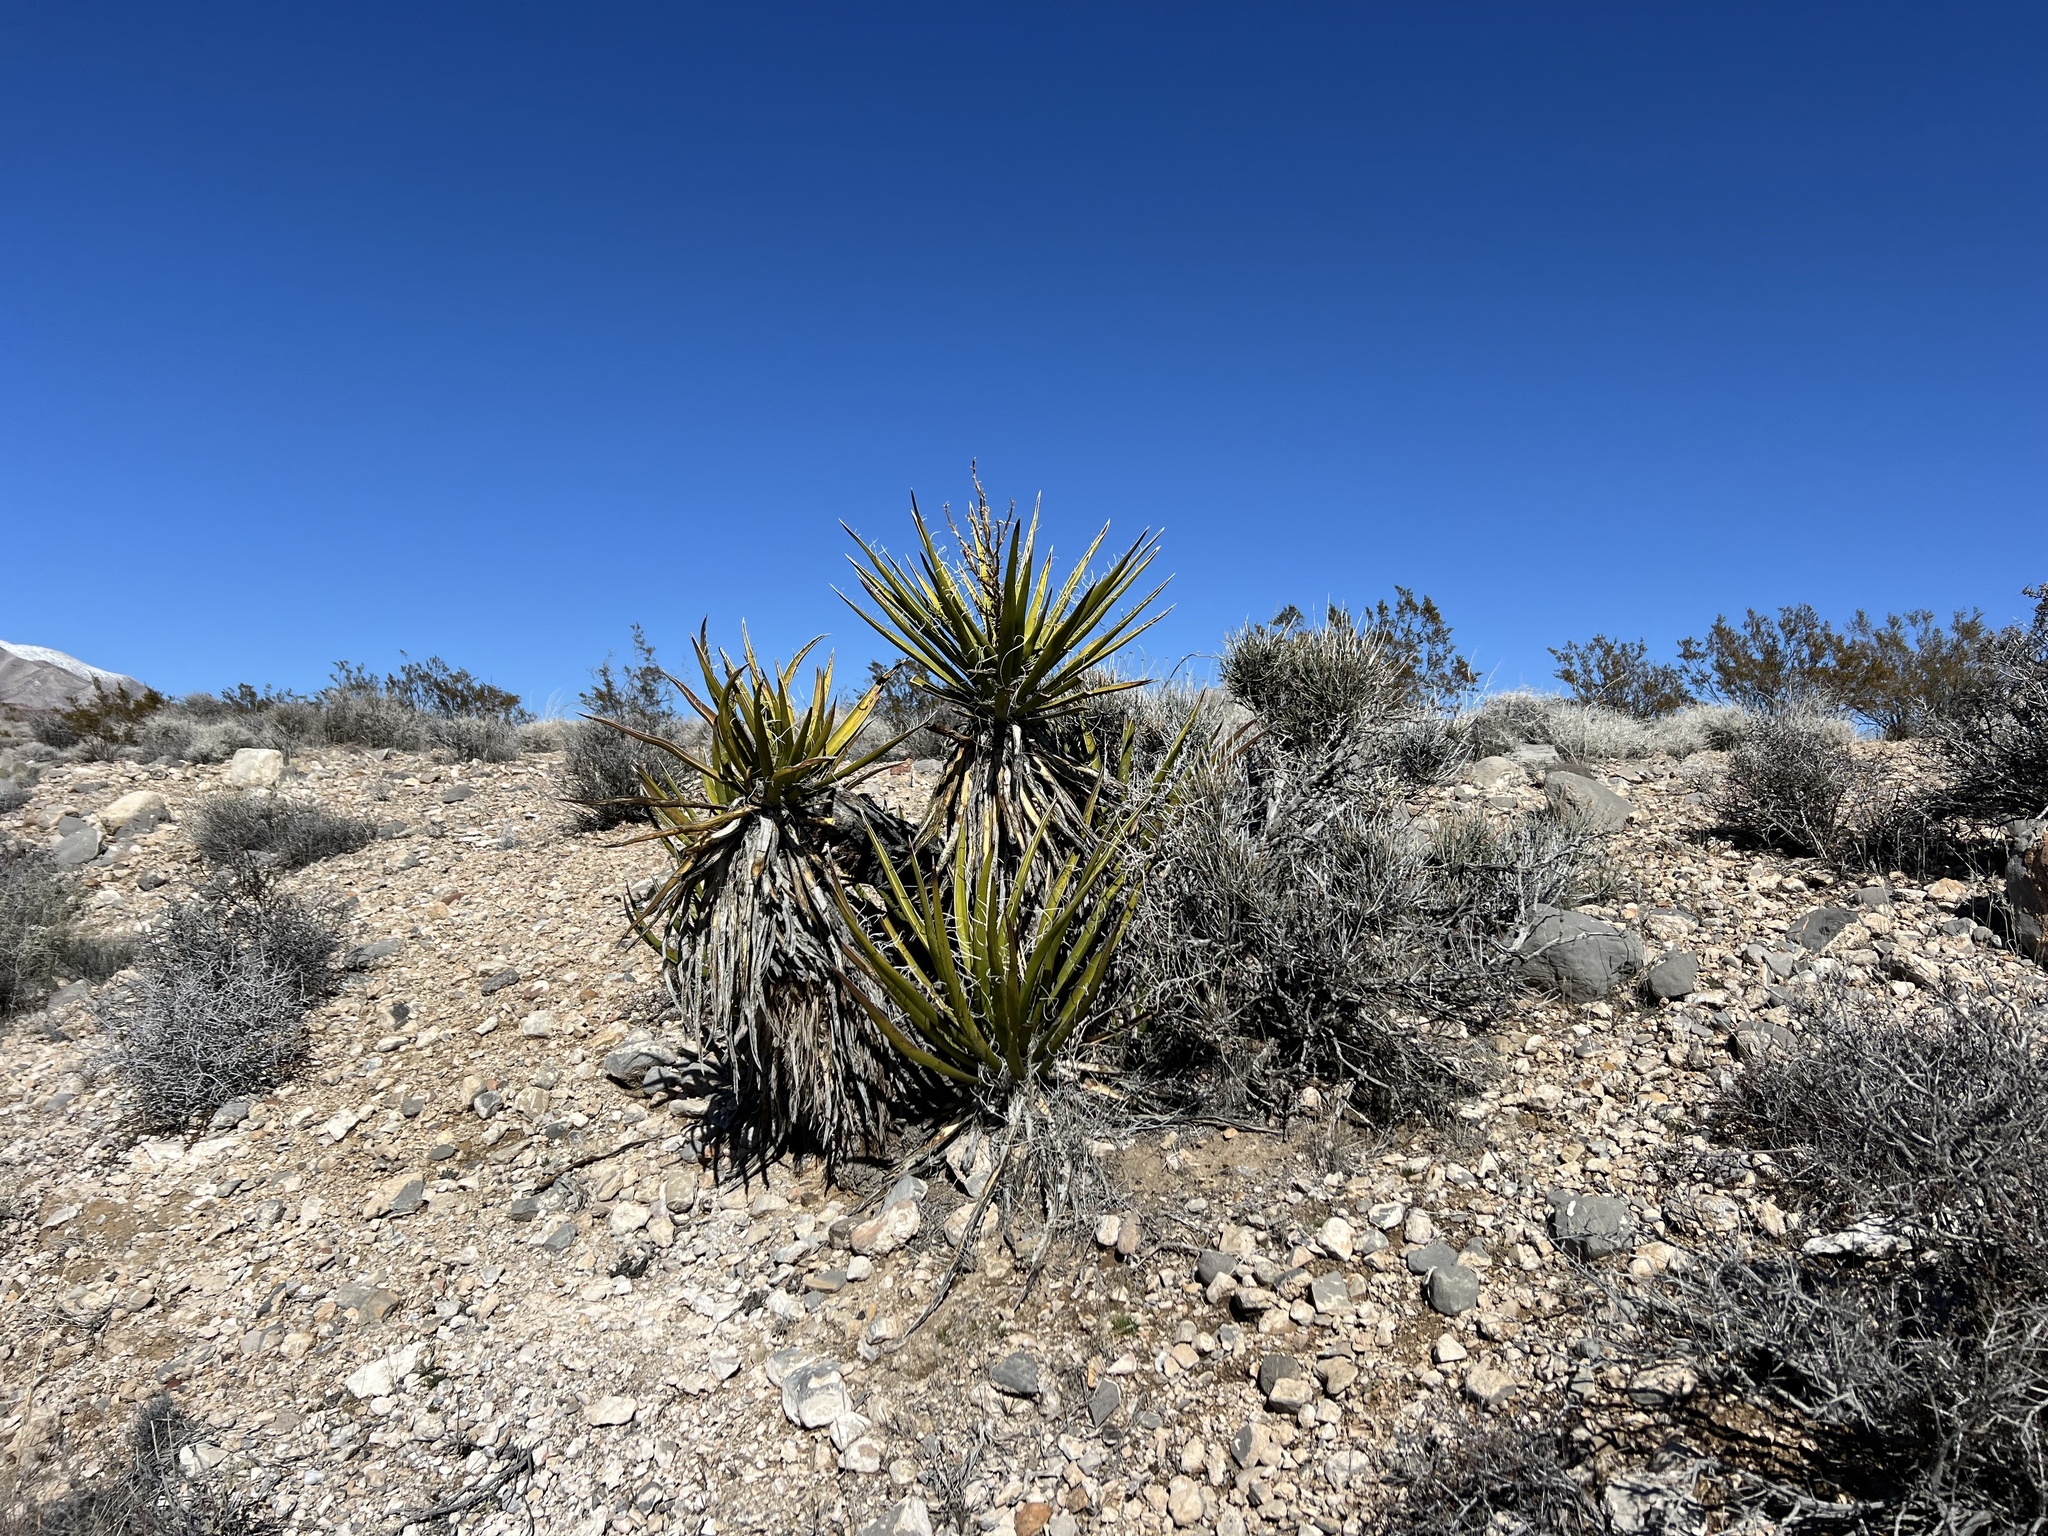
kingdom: Plantae
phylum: Tracheophyta
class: Liliopsida
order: Asparagales
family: Asparagaceae
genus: Yucca
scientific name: Yucca schidigera
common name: Mojave yucca
